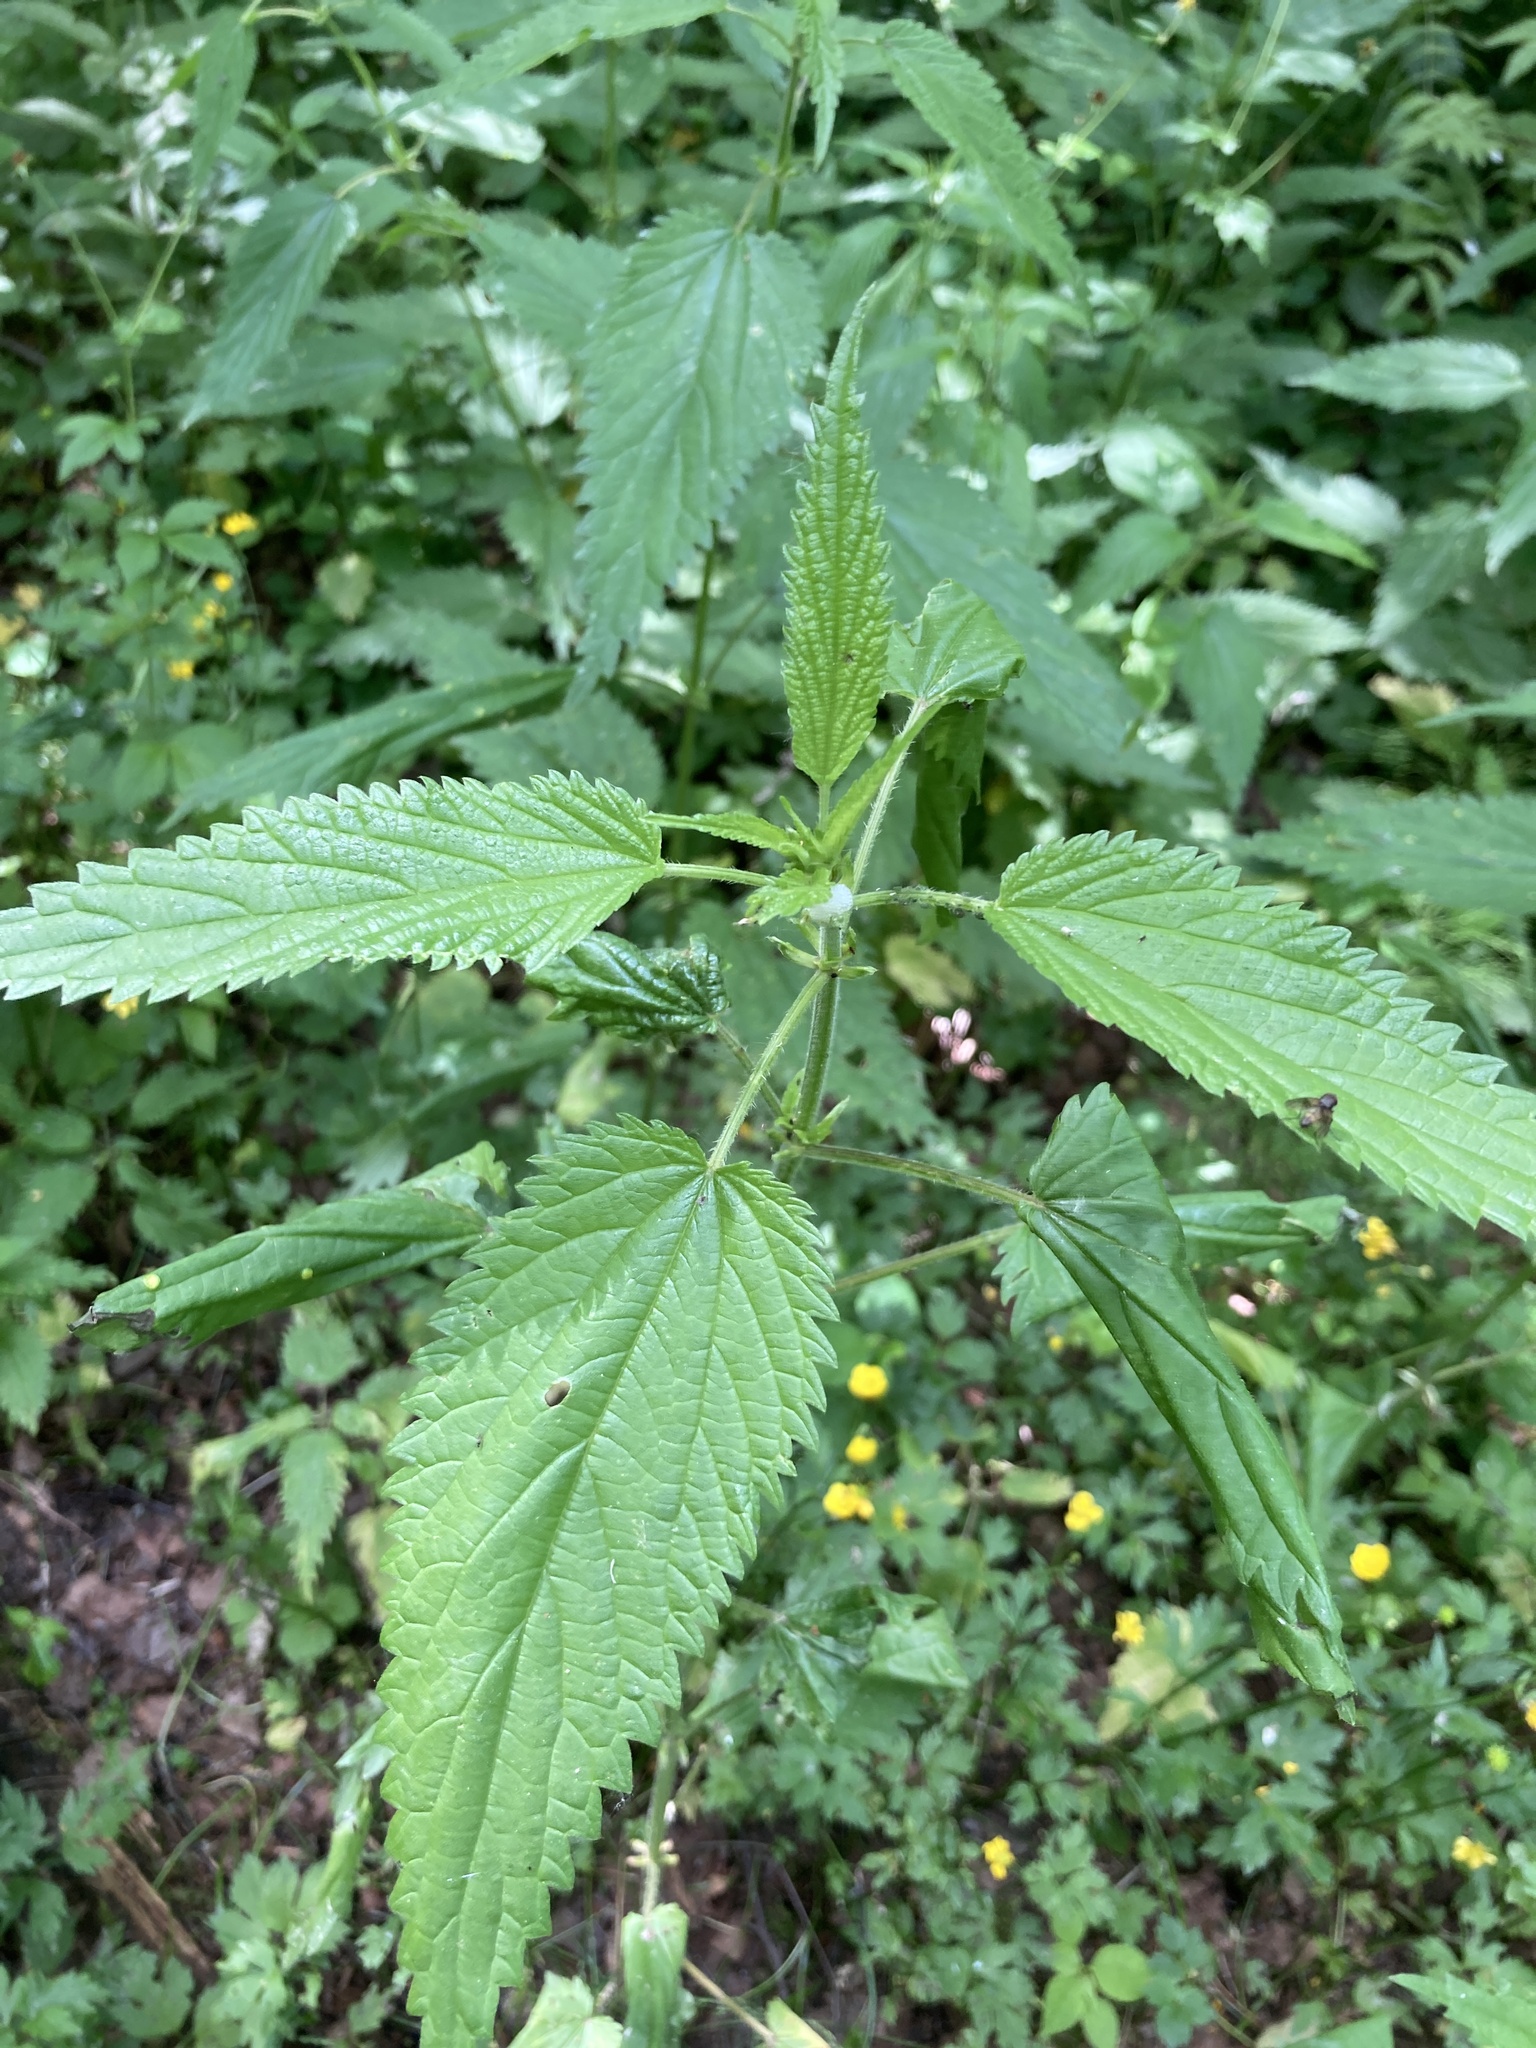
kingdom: Plantae
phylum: Tracheophyta
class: Magnoliopsida
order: Rosales
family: Urticaceae
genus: Urtica
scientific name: Urtica dioica
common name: Common nettle
